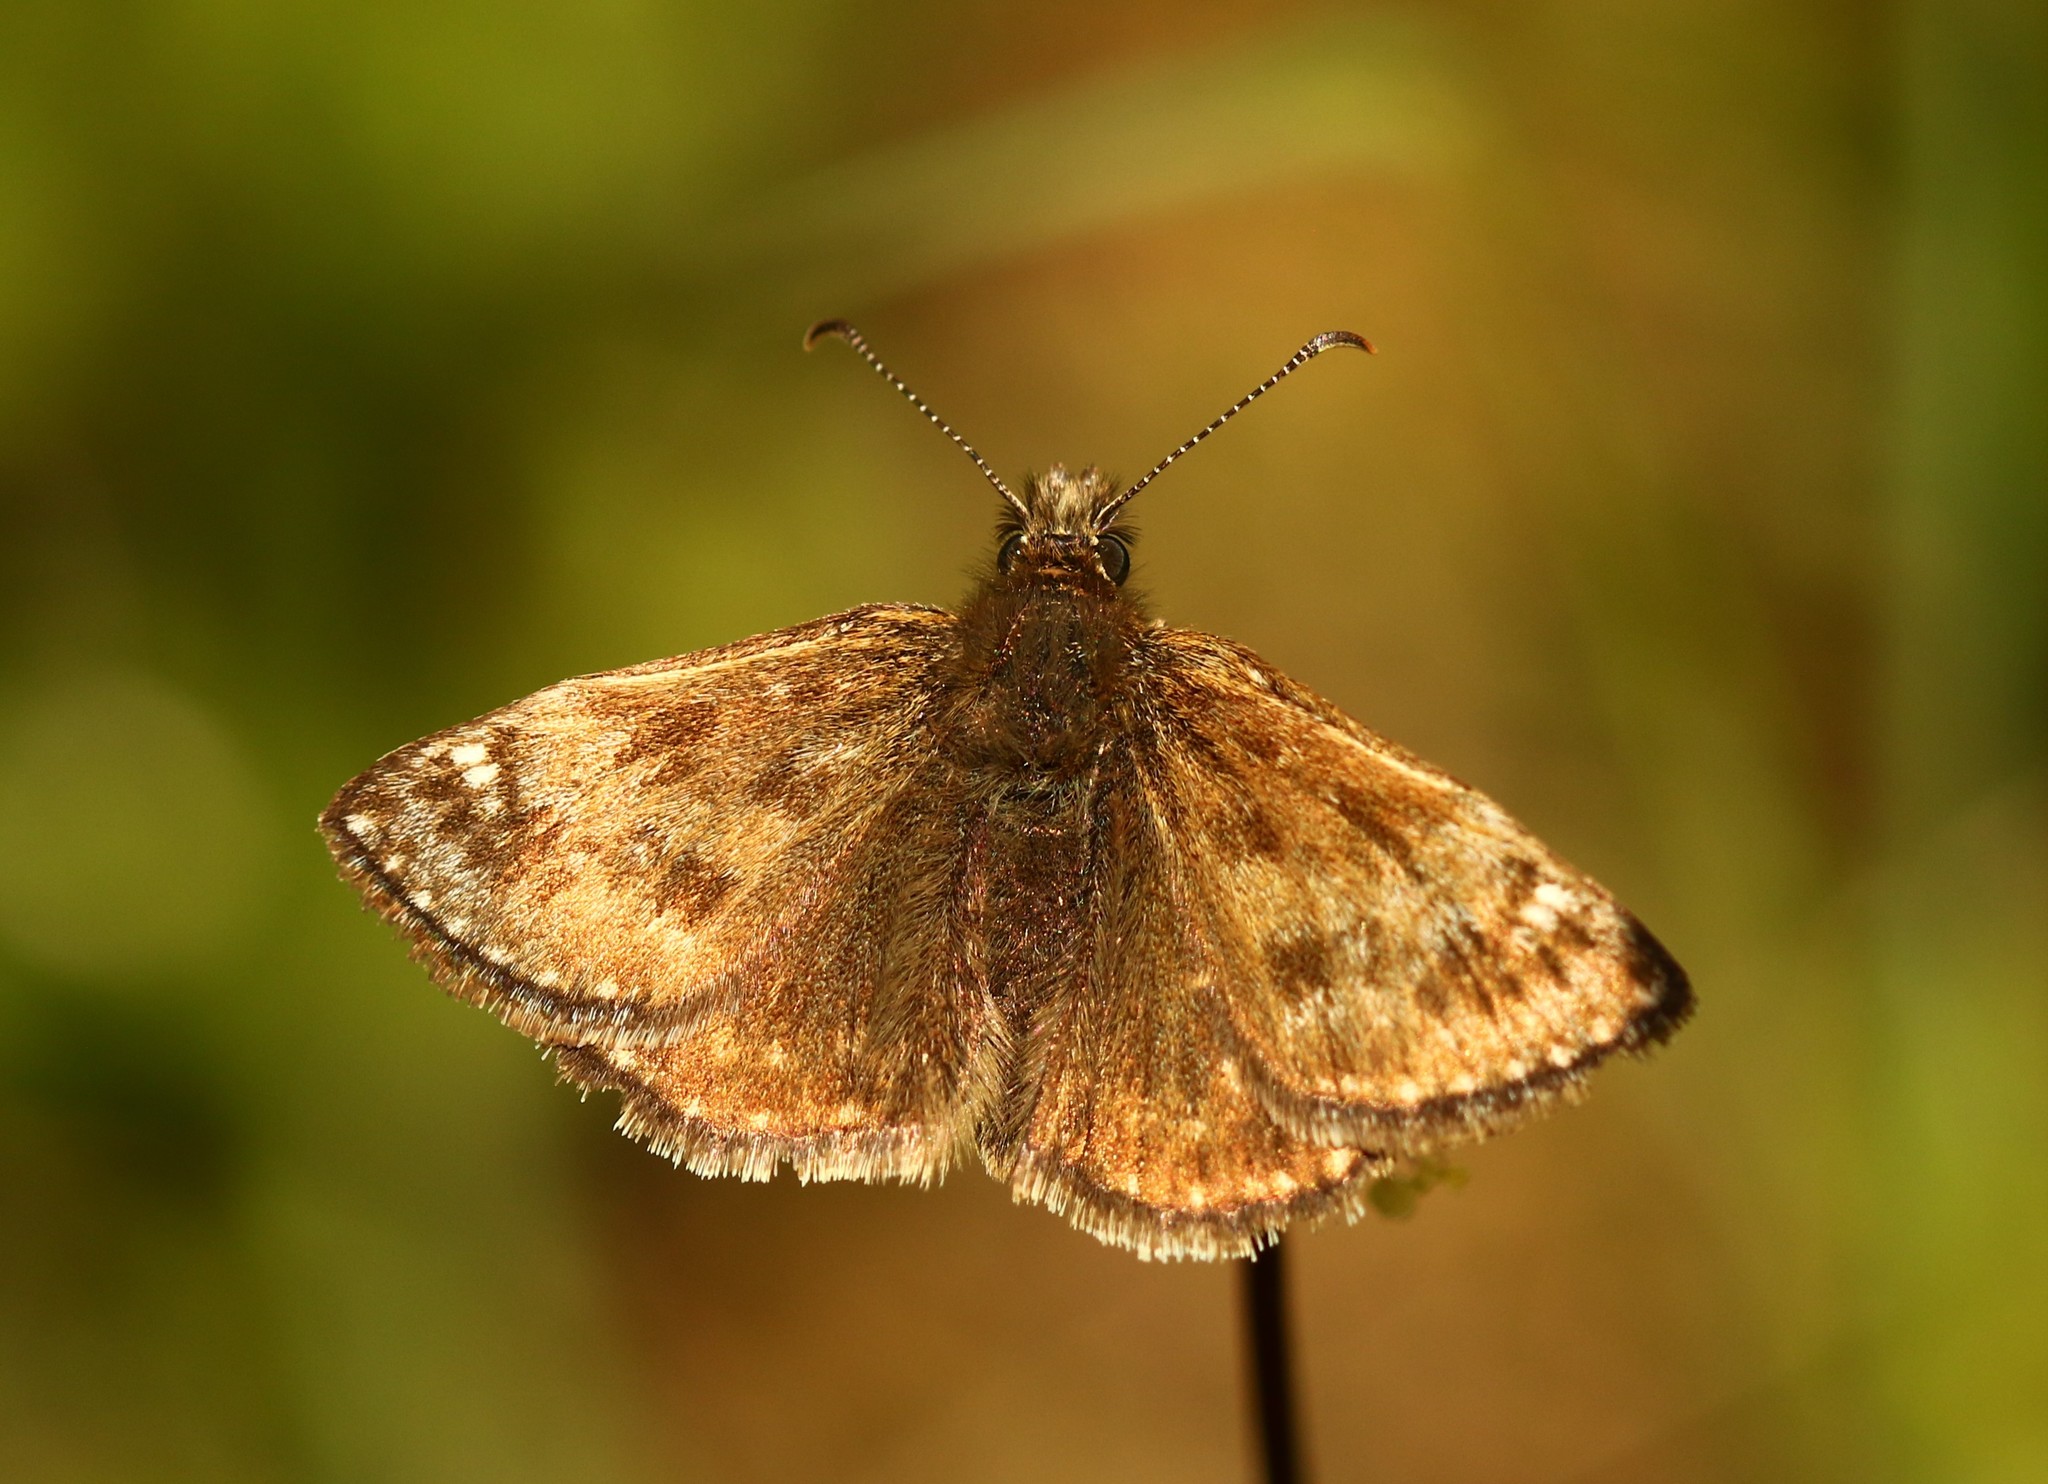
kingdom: Animalia
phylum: Arthropoda
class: Insecta
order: Lepidoptera
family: Hesperiidae
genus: Erynnis
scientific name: Erynnis tages
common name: Dingy skipper
